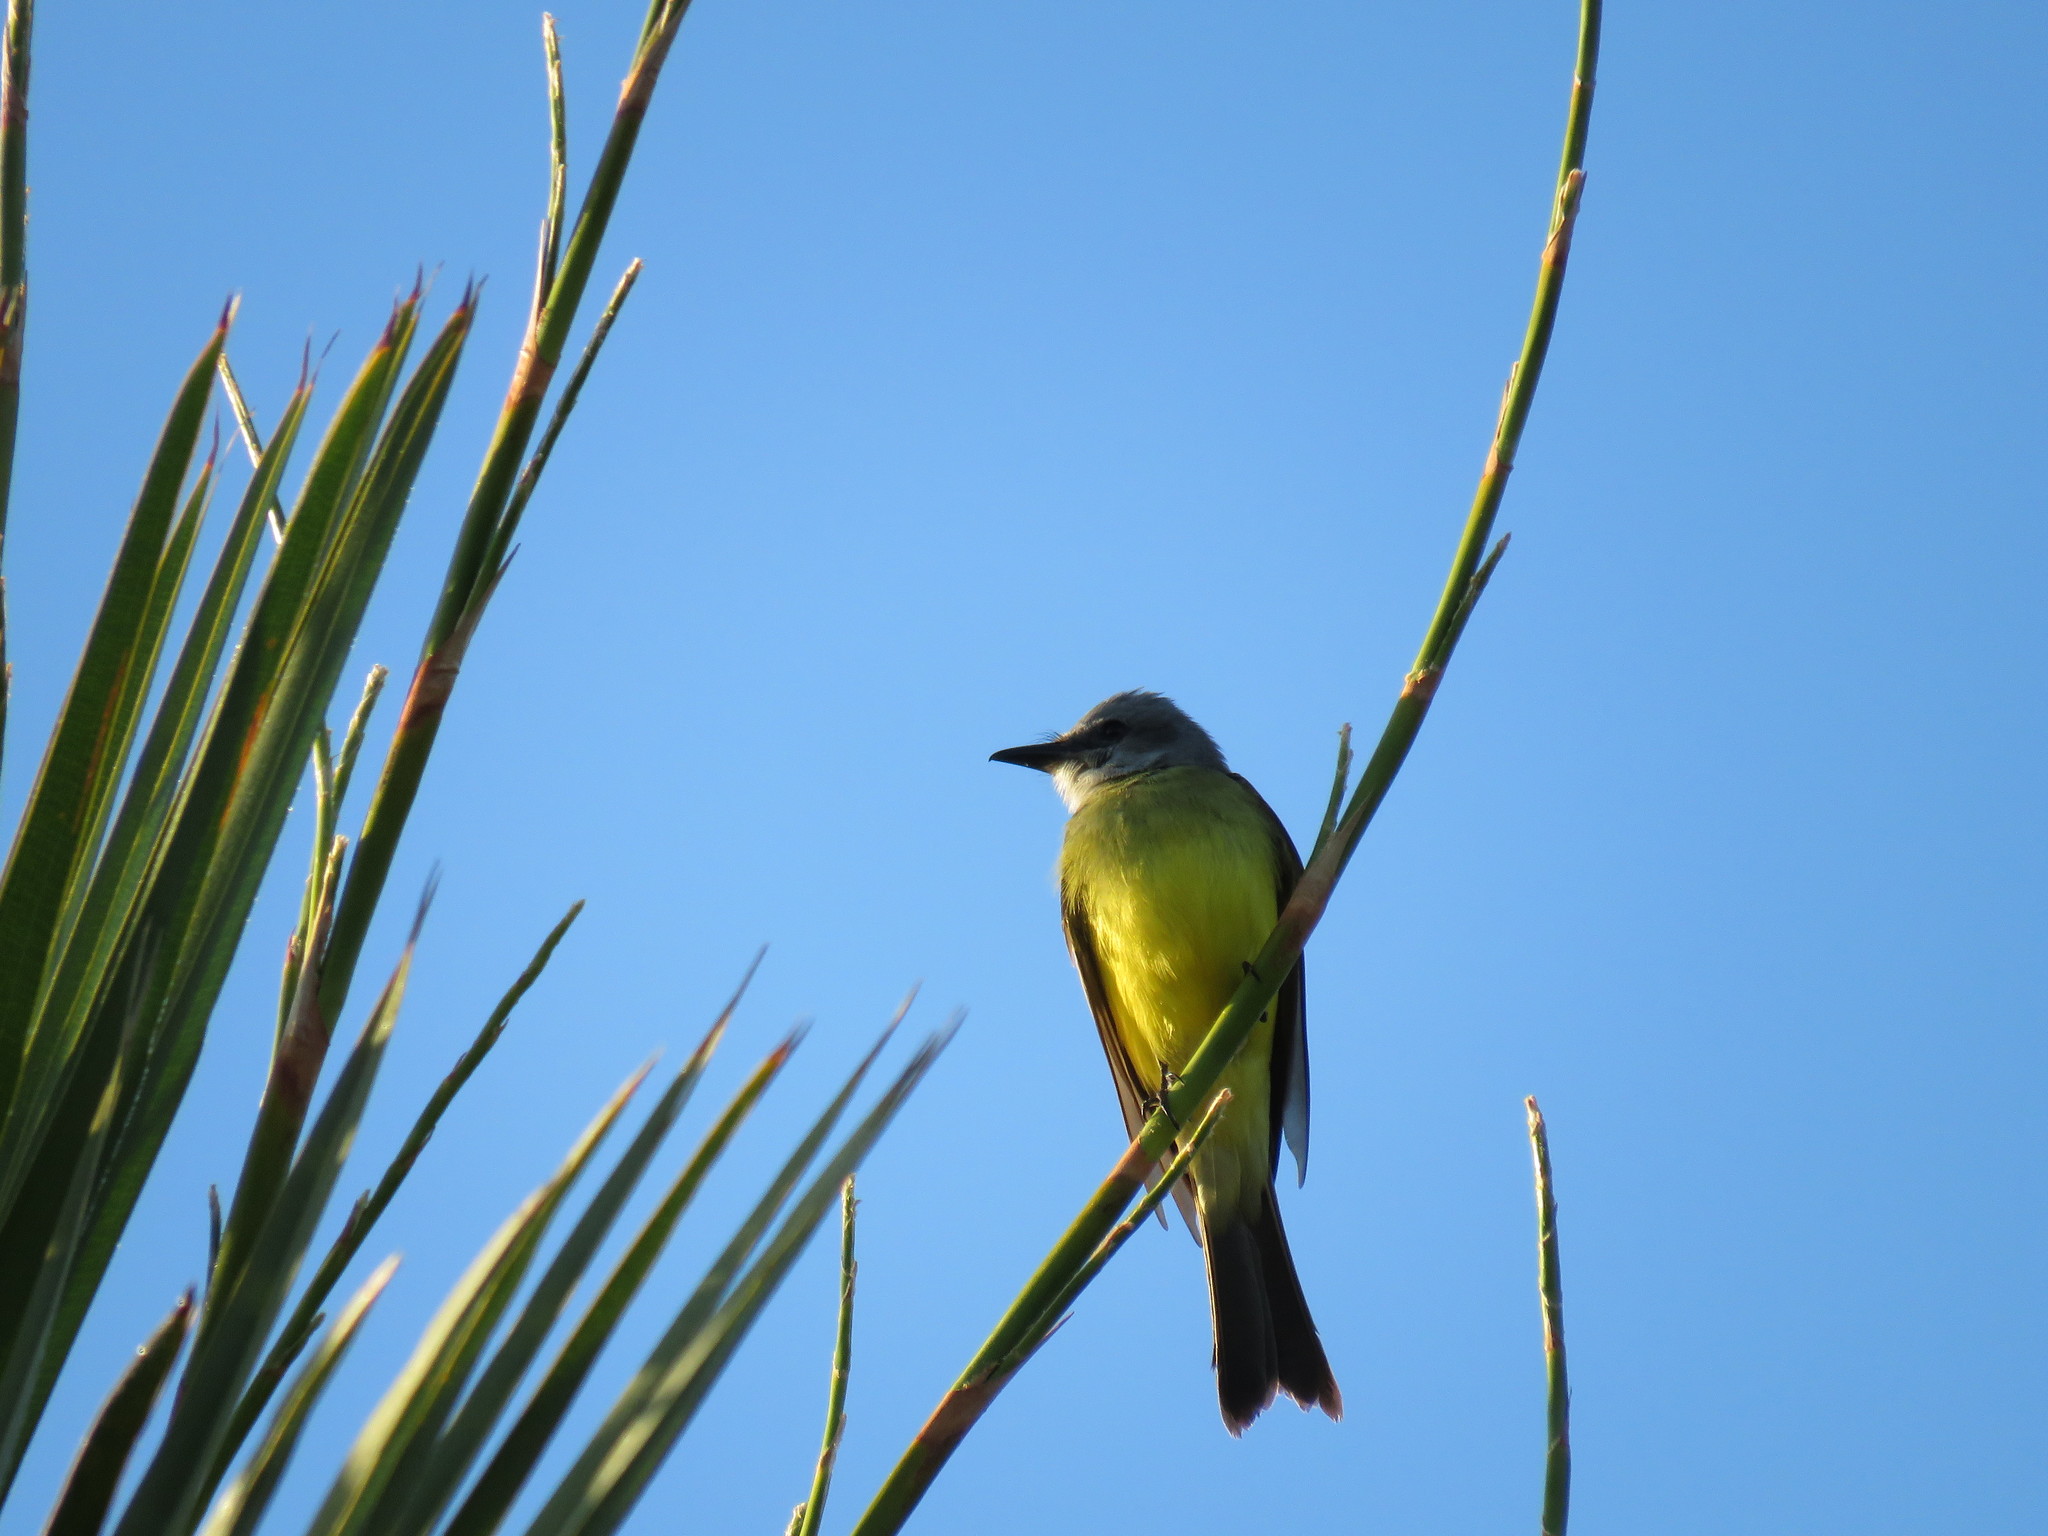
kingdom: Animalia
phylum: Chordata
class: Aves
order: Passeriformes
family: Tyrannidae
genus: Tyrannus
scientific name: Tyrannus melancholicus
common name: Tropical kingbird
